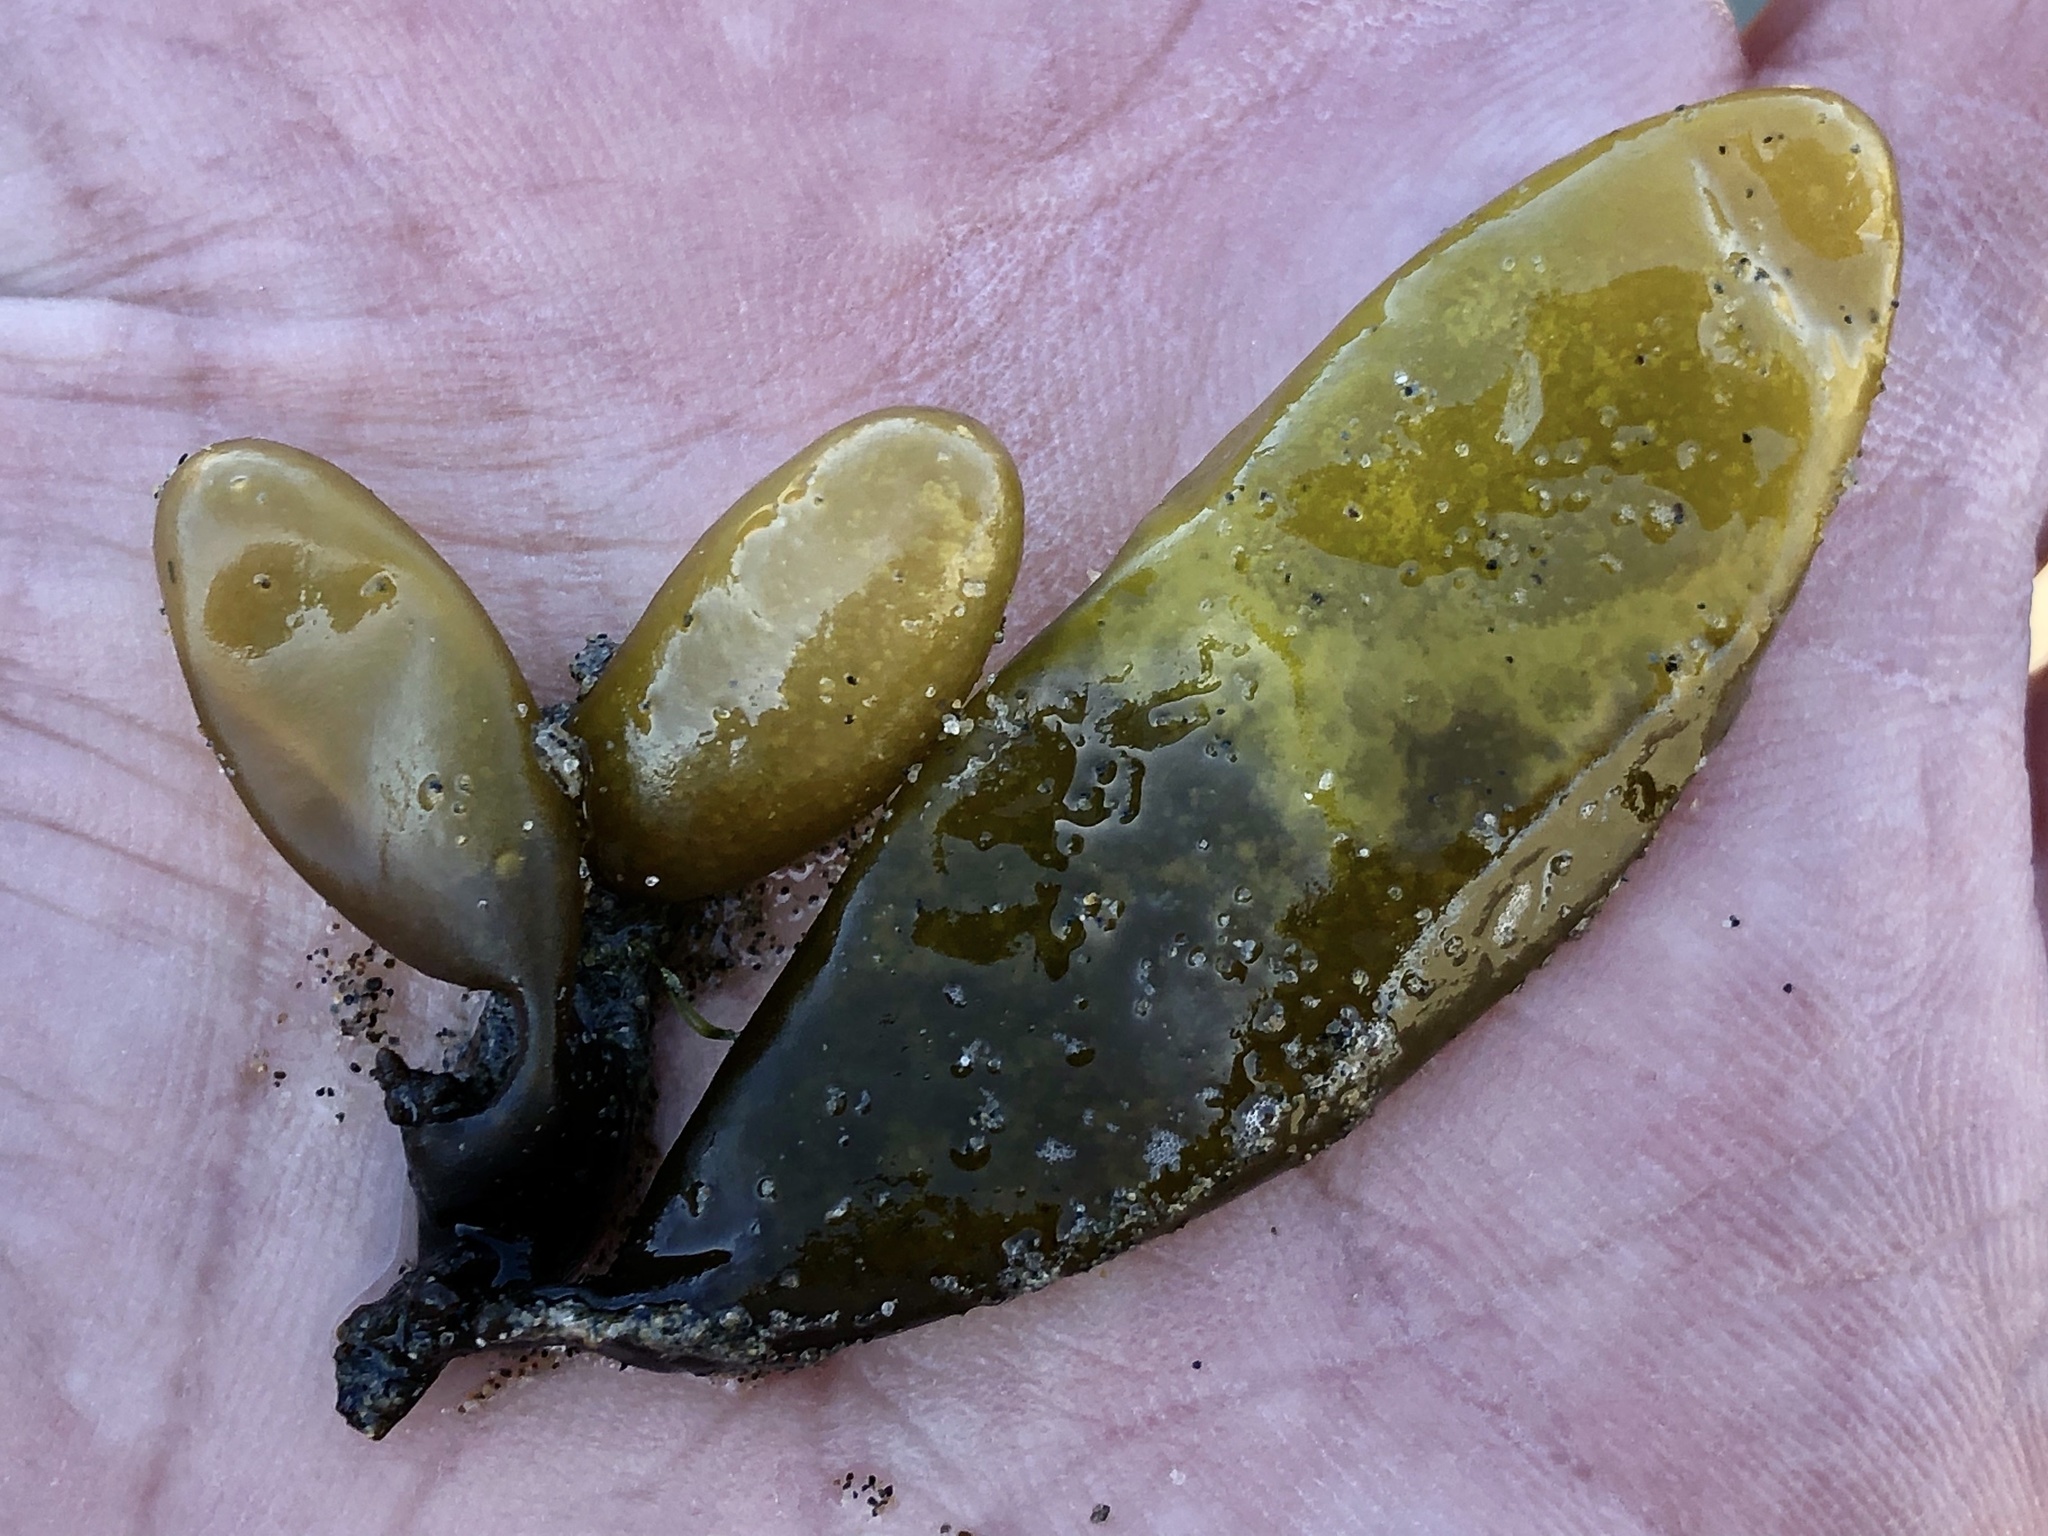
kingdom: Plantae
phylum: Rhodophyta
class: Florideophyceae
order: Palmariales
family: Palmariaceae
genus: Halosaccion
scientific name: Halosaccion glandiforme
